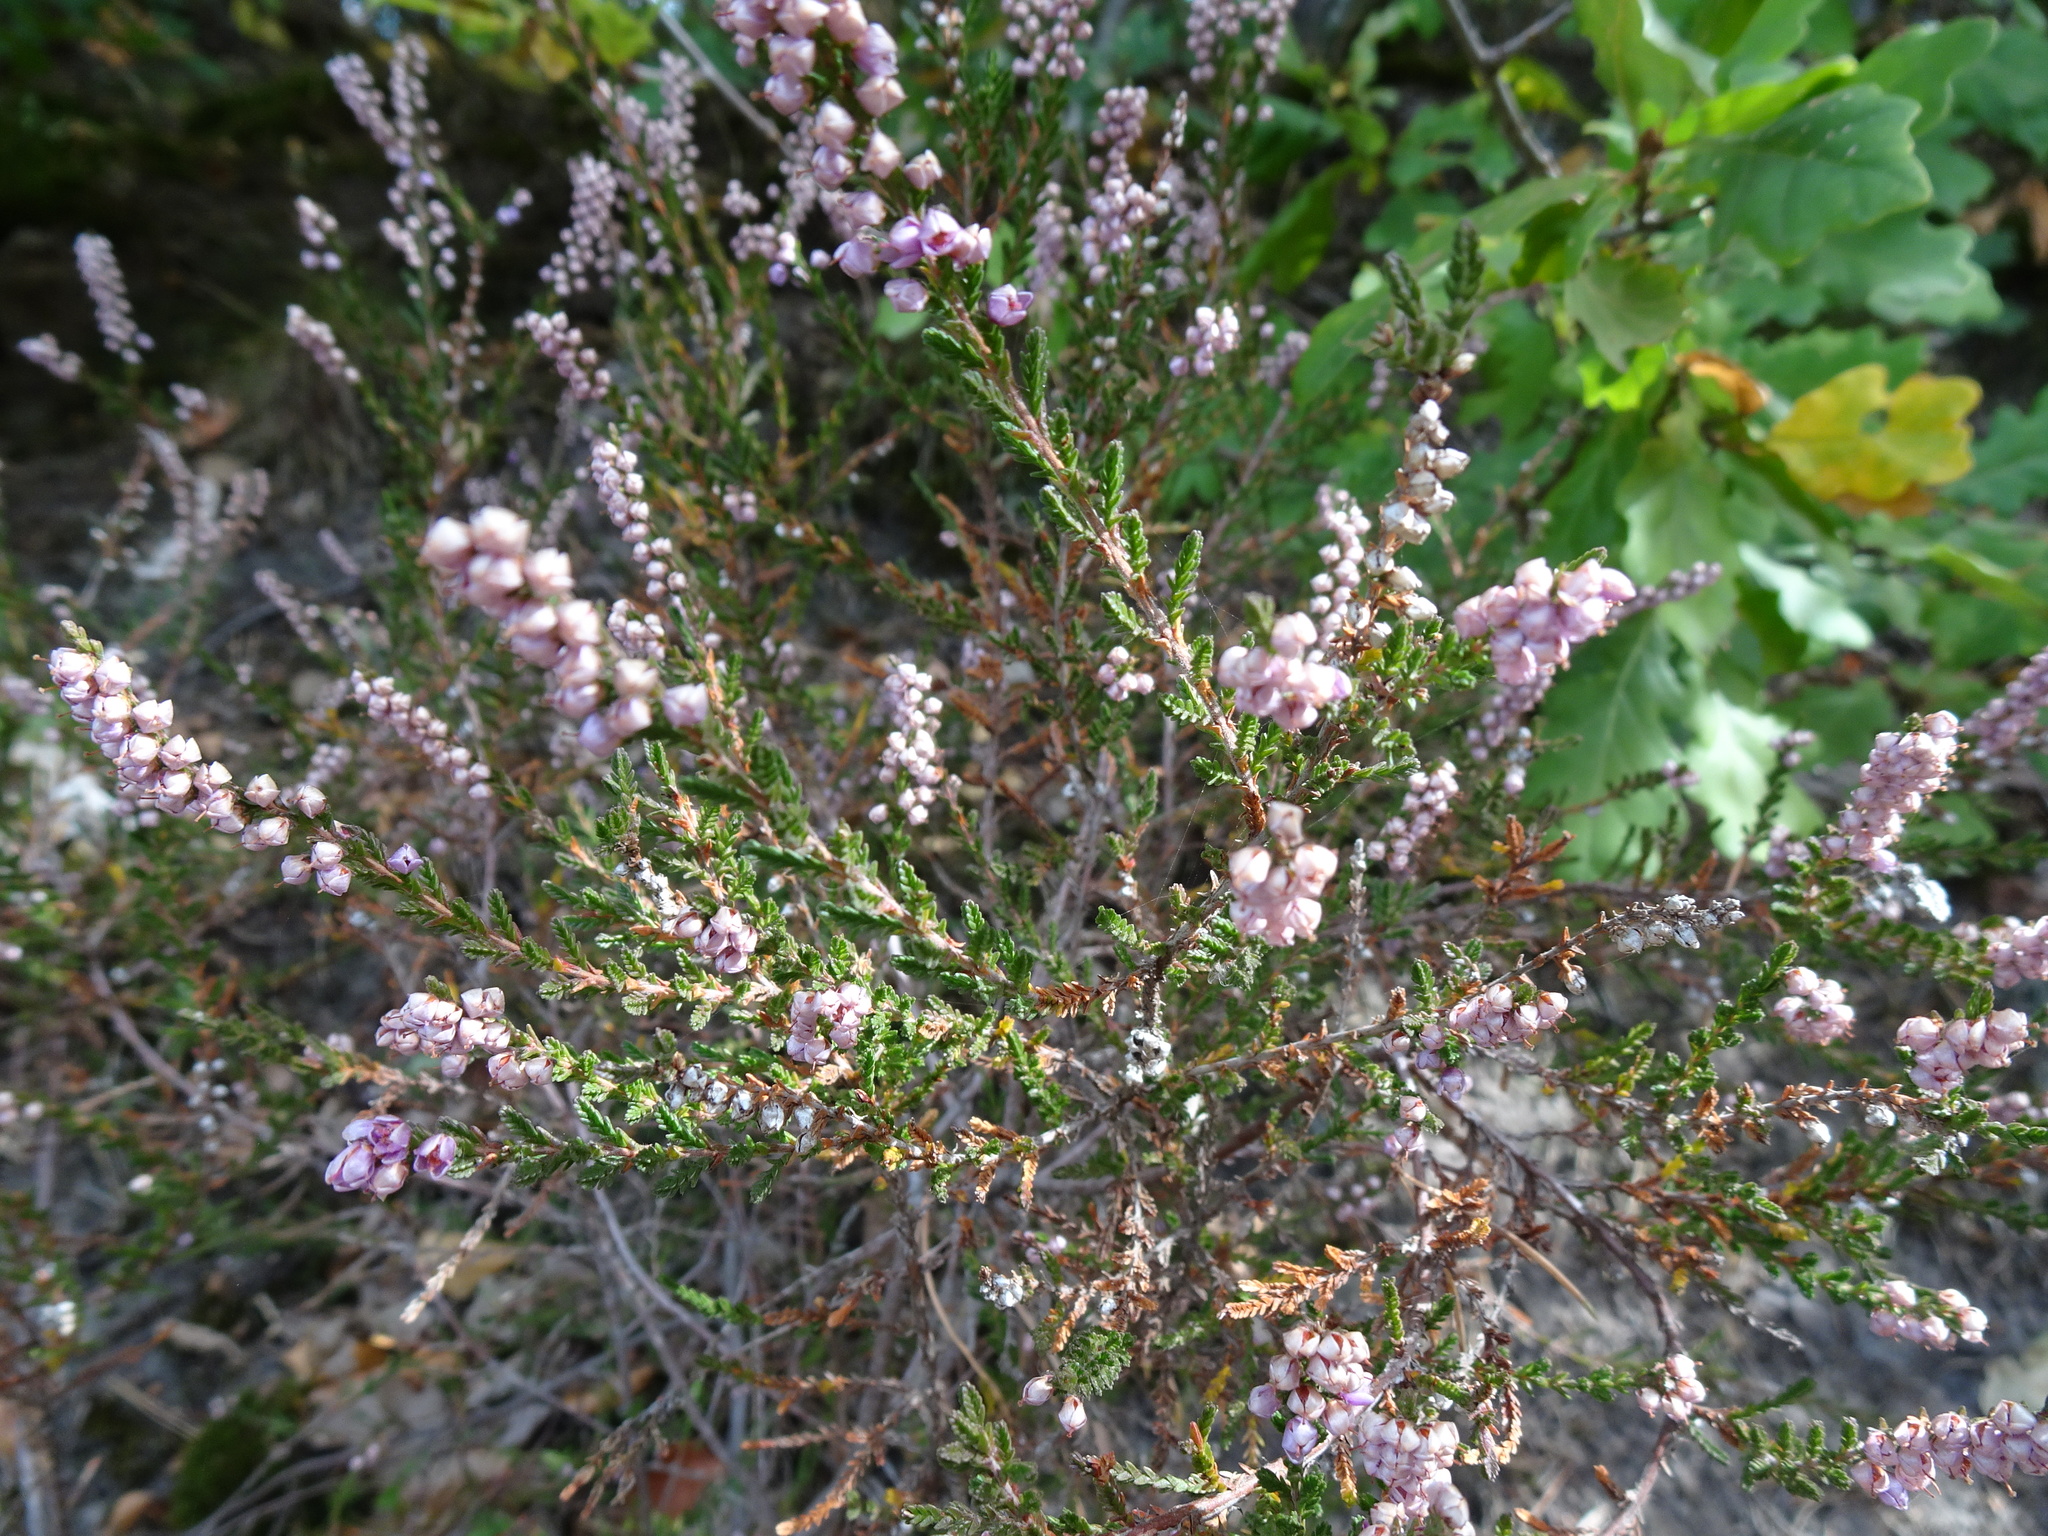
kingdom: Plantae
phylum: Tracheophyta
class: Magnoliopsida
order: Ericales
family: Ericaceae
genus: Calluna
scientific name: Calluna vulgaris
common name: Heather
